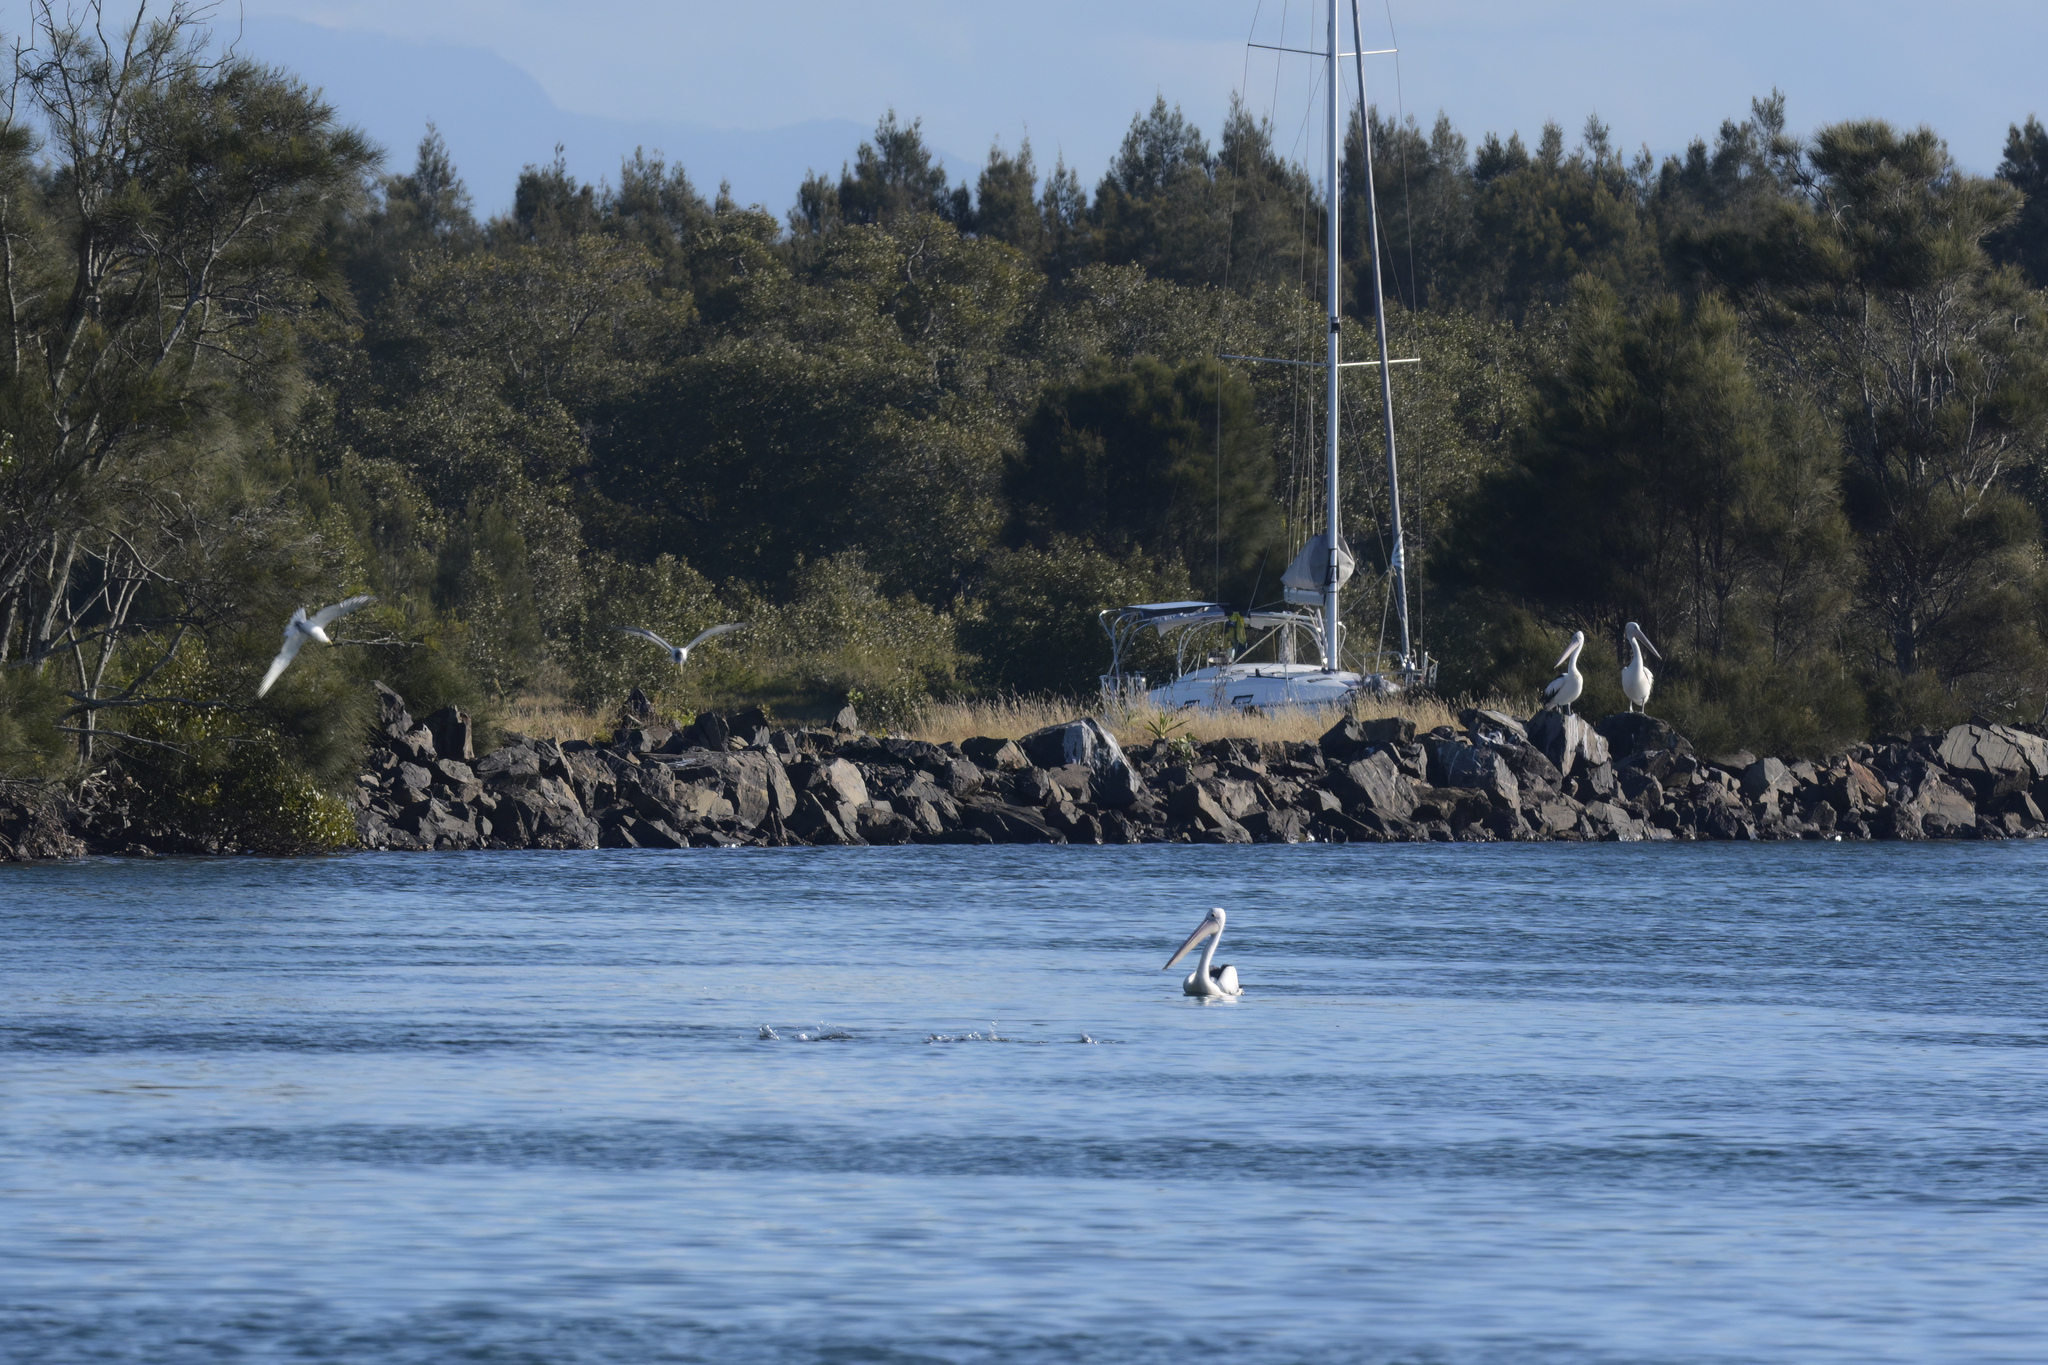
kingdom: Animalia
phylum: Chordata
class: Aves
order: Pelecaniformes
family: Pelecanidae
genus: Pelecanus
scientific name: Pelecanus conspicillatus
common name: Australian pelican
